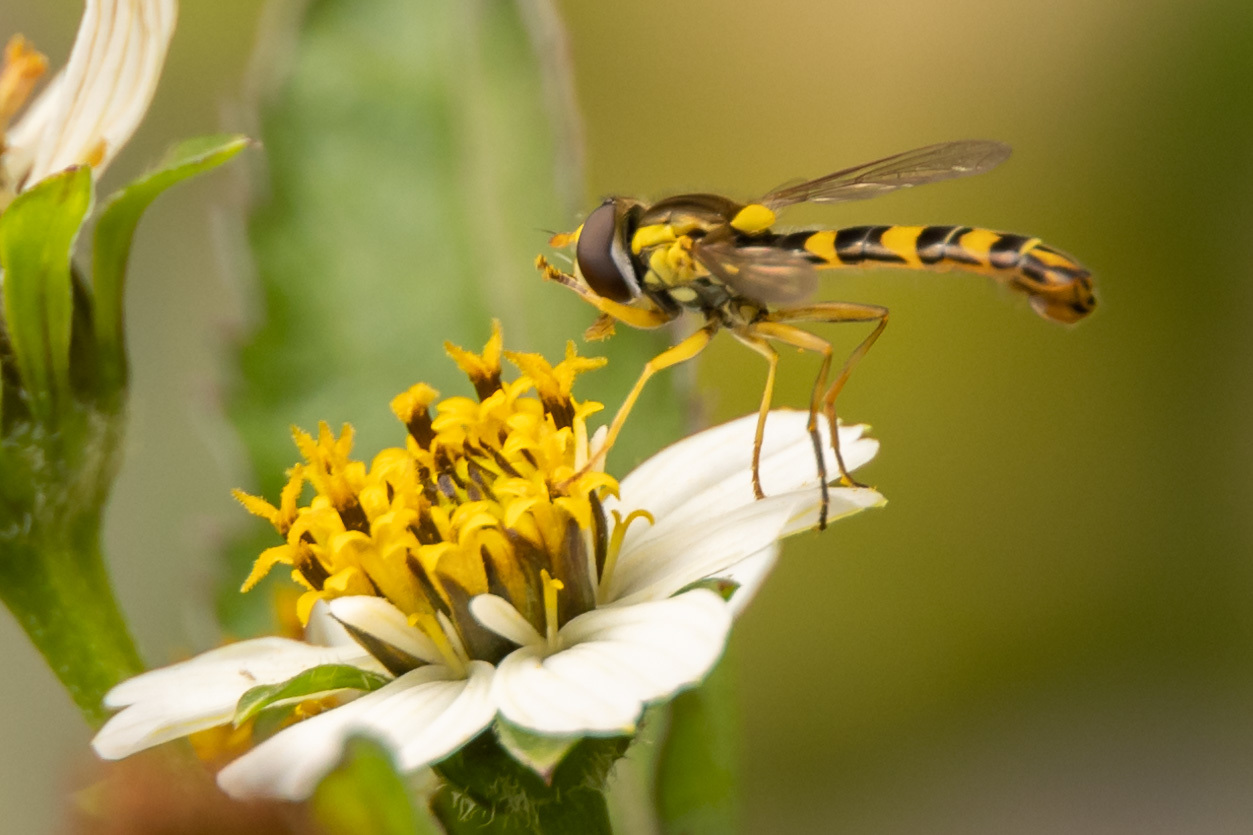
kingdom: Animalia
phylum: Arthropoda
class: Insecta
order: Diptera
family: Syrphidae
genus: Sphaerophoria
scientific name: Sphaerophoria scripta
